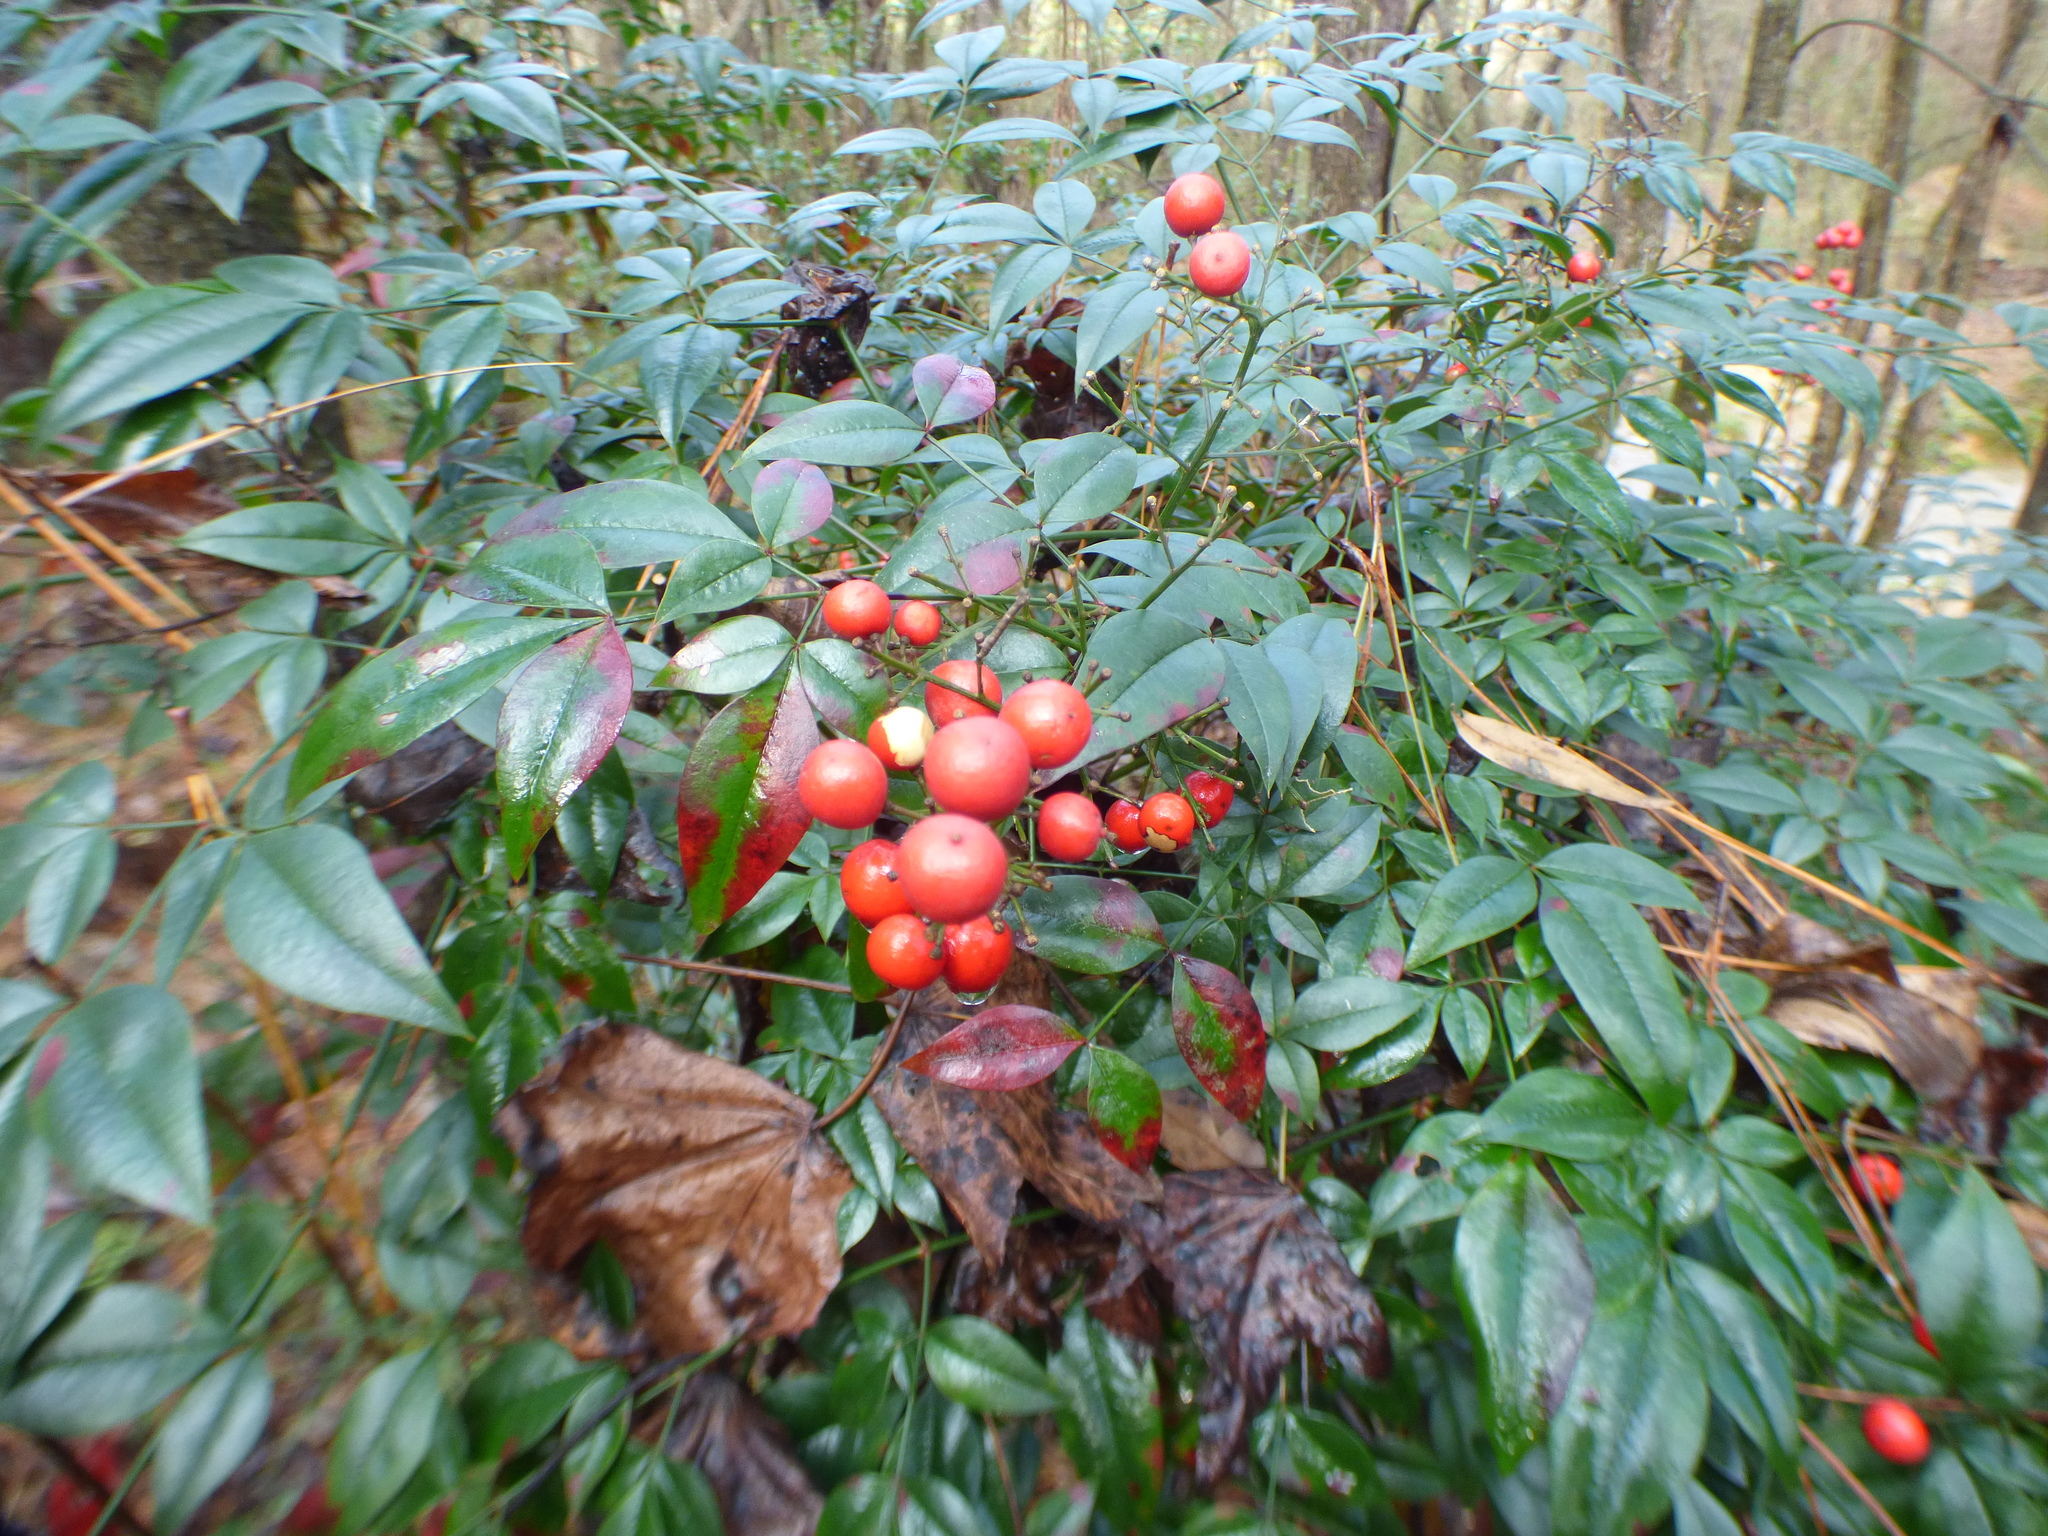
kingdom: Plantae
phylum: Tracheophyta
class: Magnoliopsida
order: Ranunculales
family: Berberidaceae
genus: Nandina
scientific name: Nandina domestica
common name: Sacred bamboo
